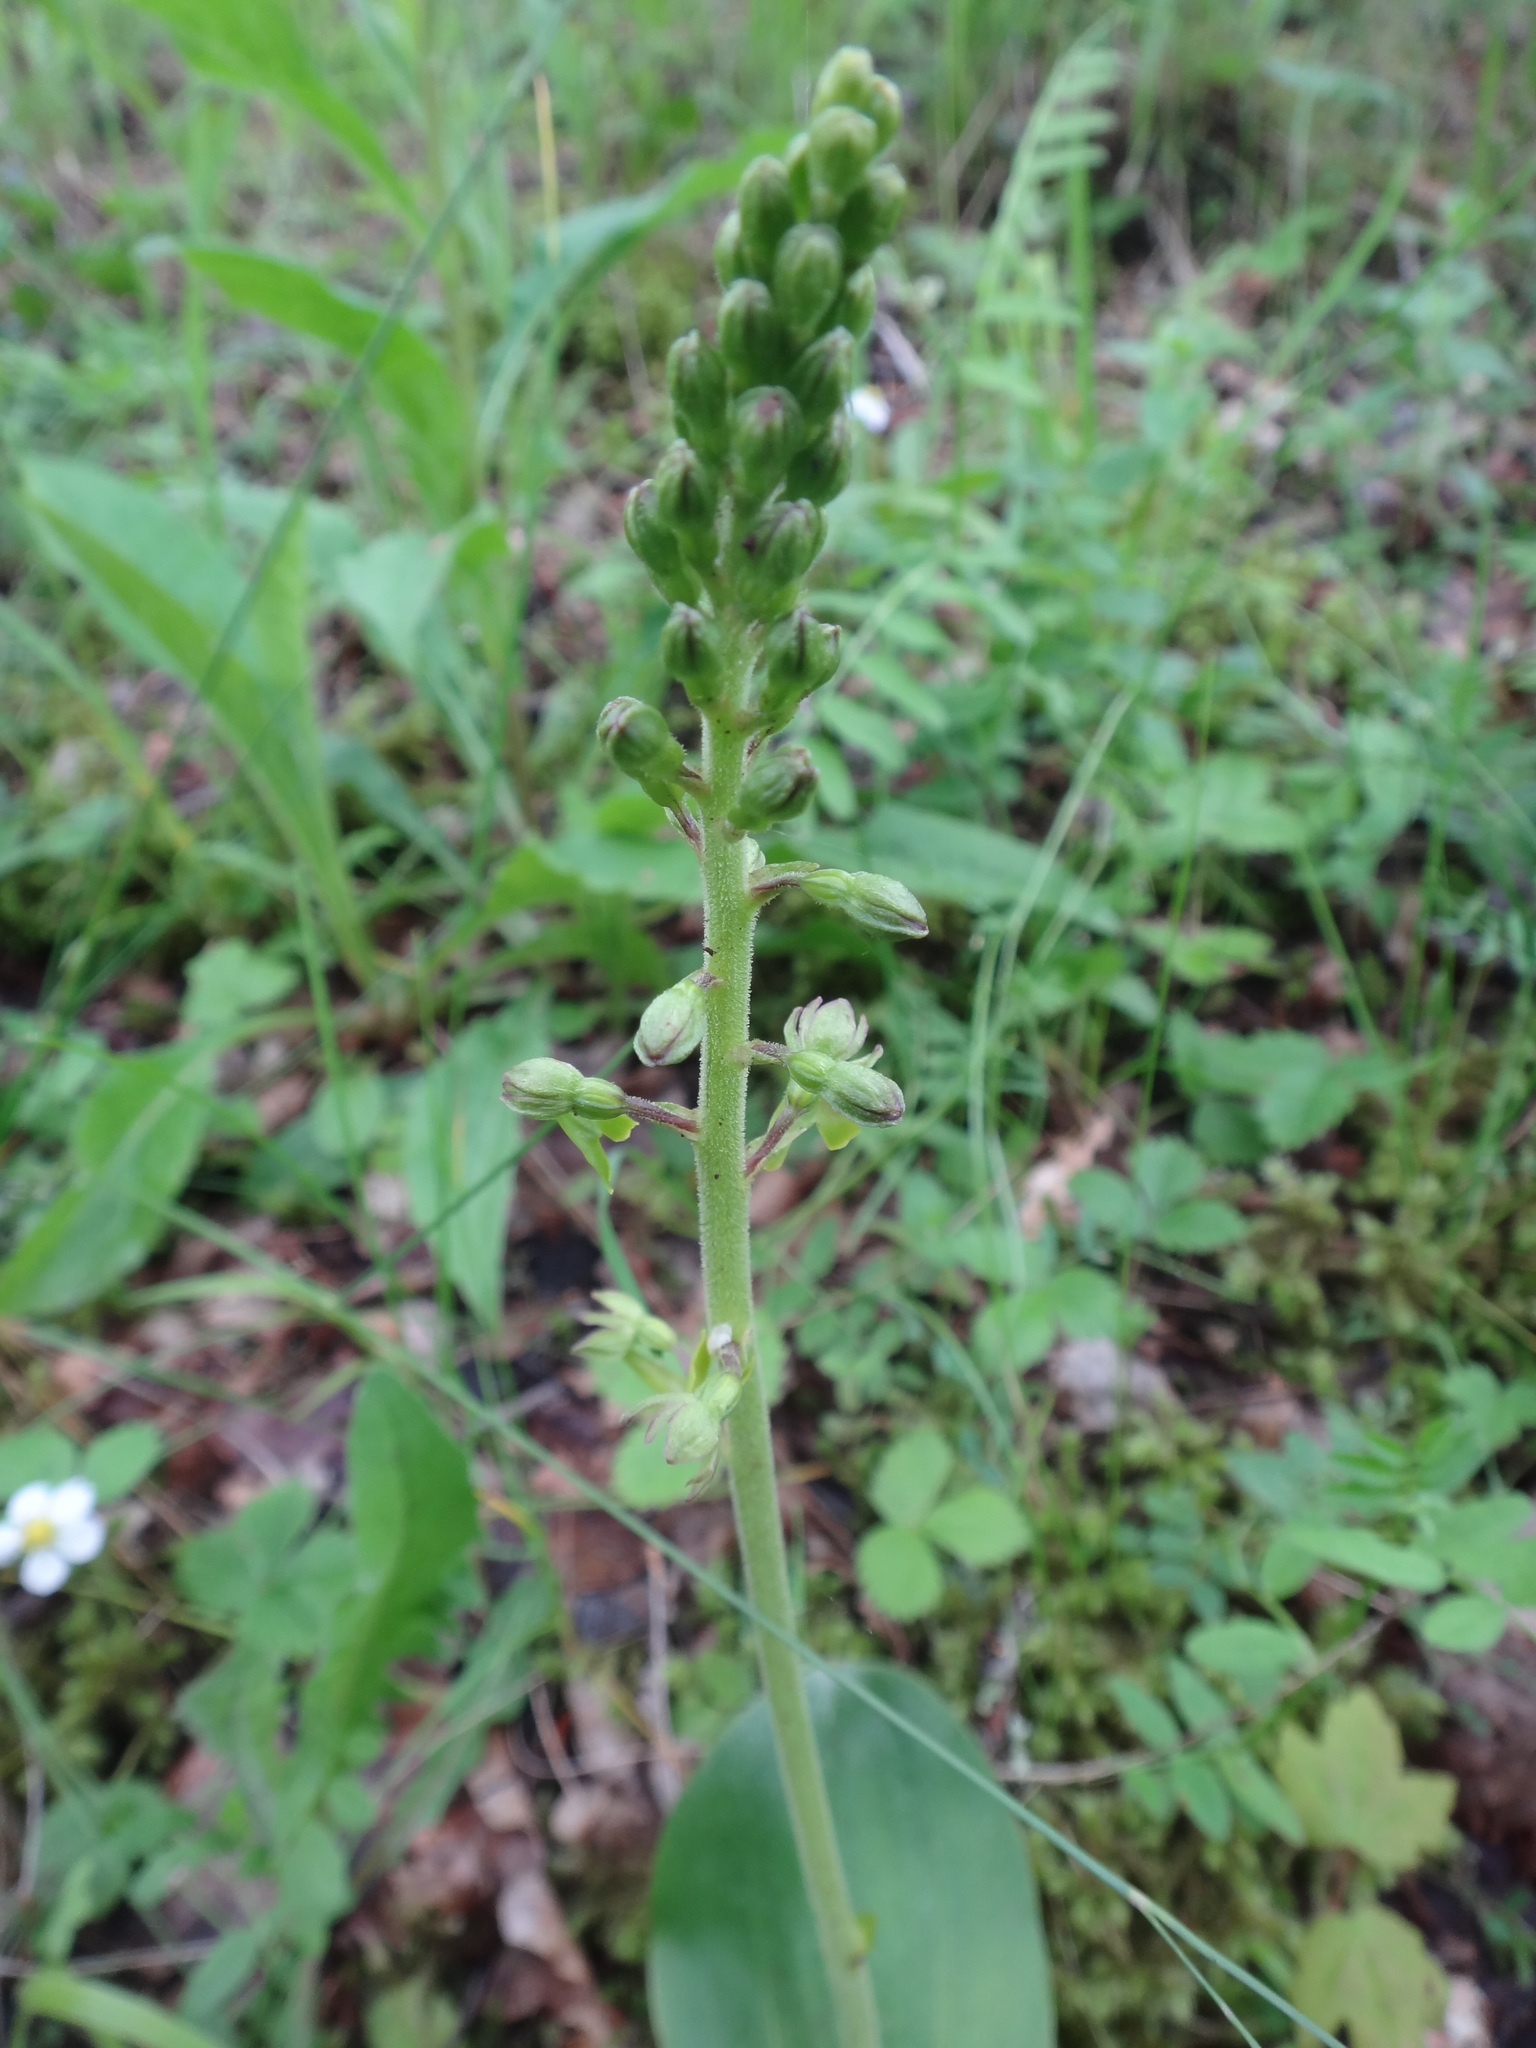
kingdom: Plantae
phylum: Tracheophyta
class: Liliopsida
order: Asparagales
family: Orchidaceae
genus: Neottia
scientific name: Neottia ovata
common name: Common twayblade
